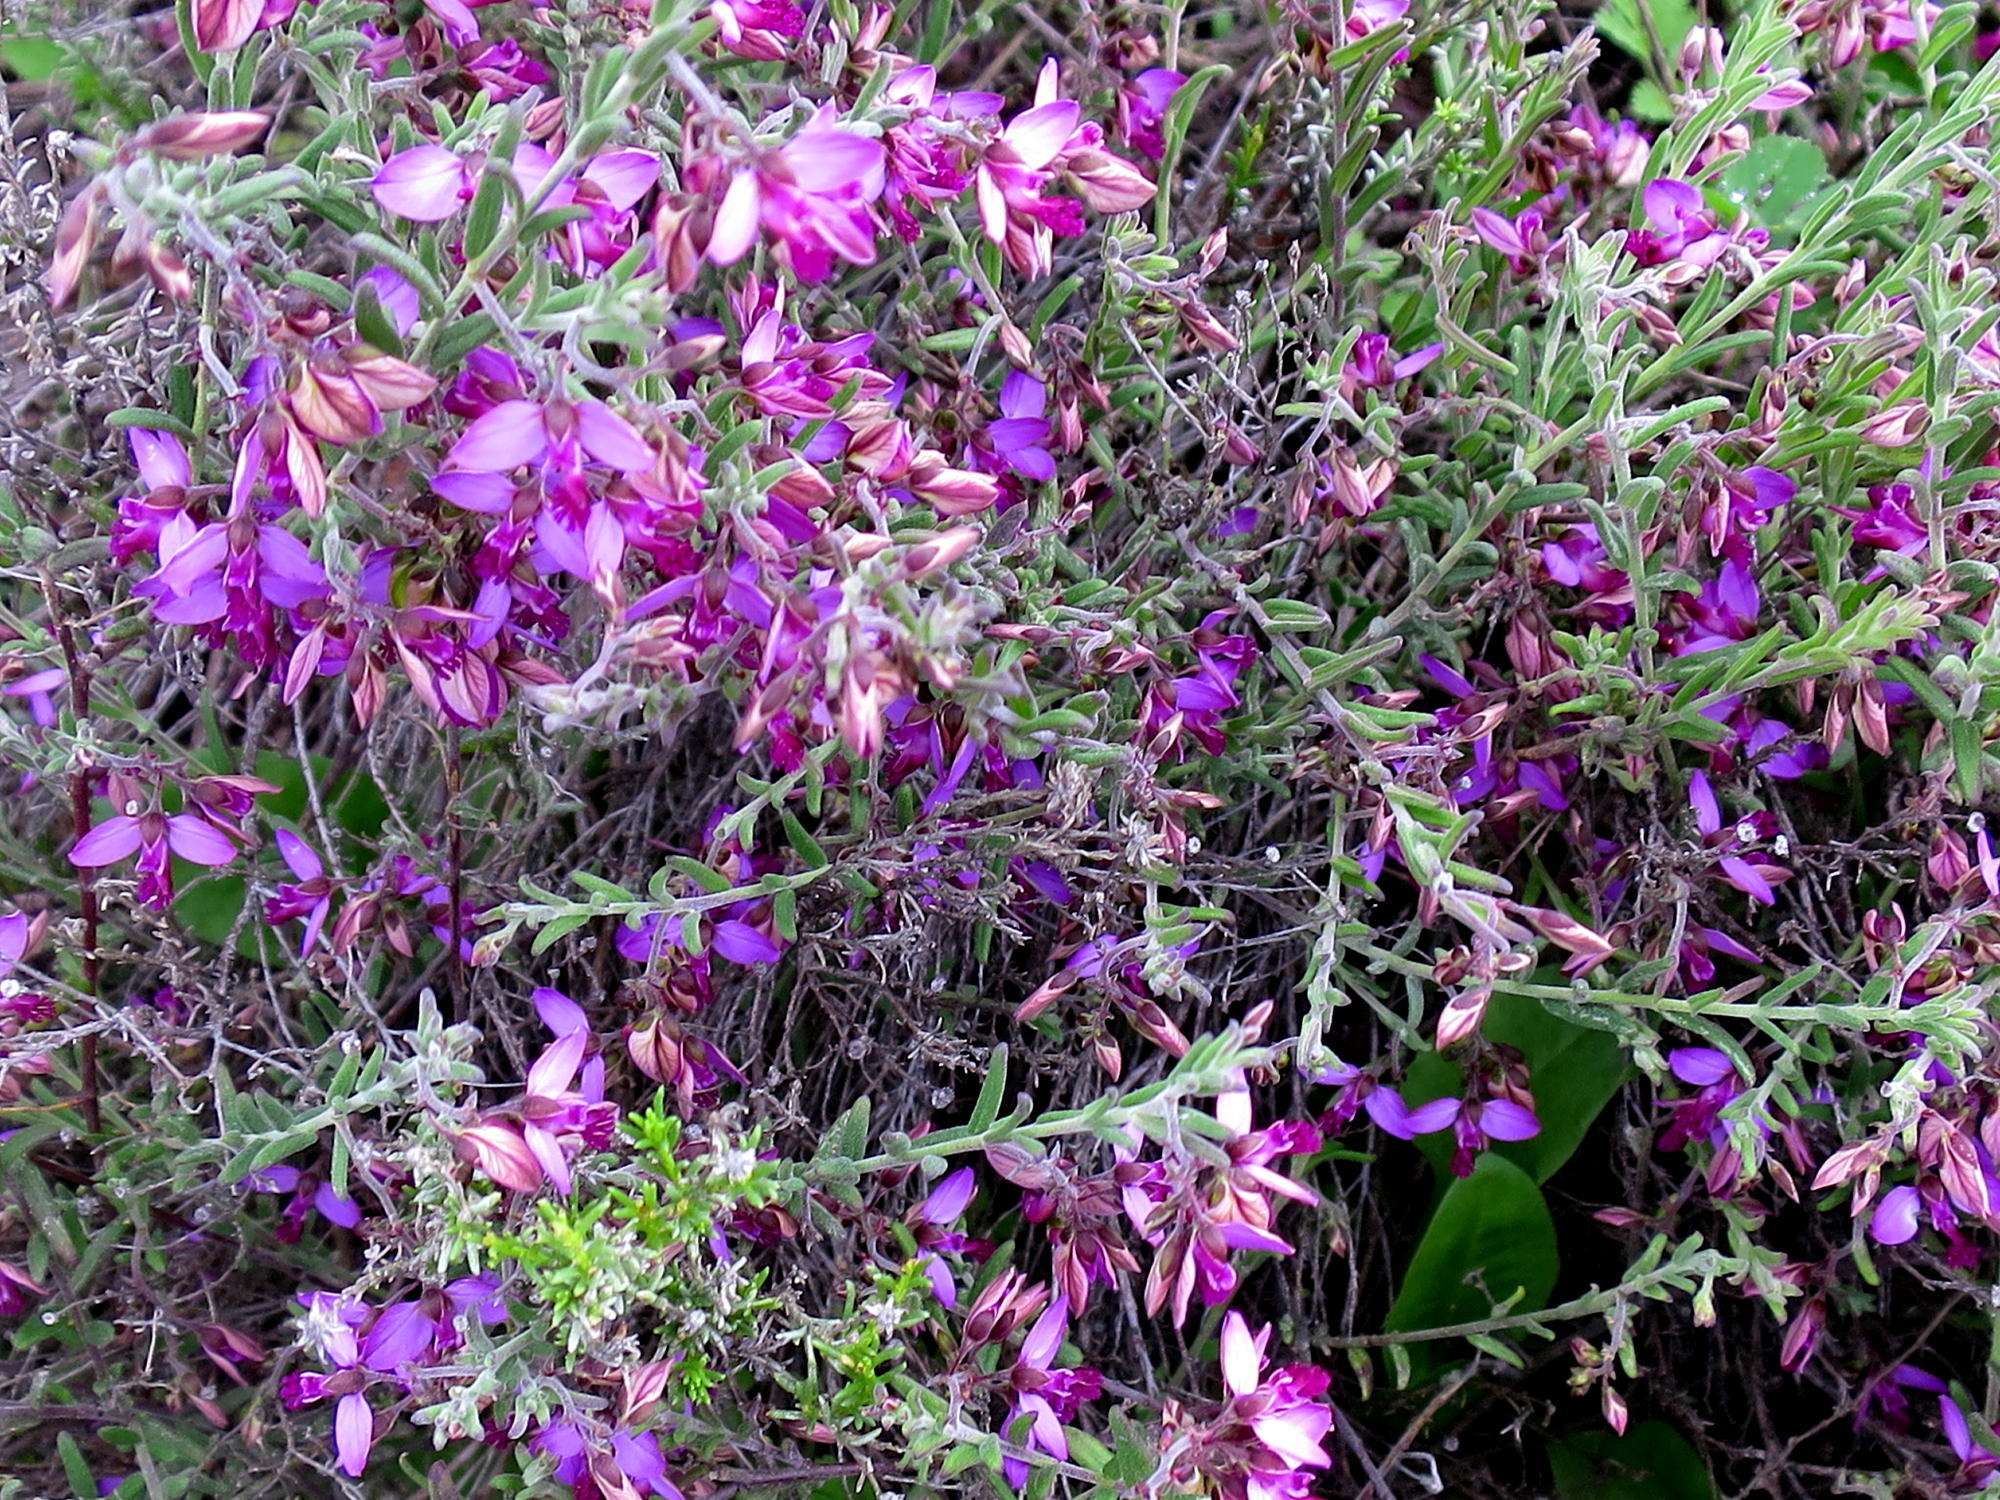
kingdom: Plantae
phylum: Tracheophyta
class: Magnoliopsida
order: Fabales
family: Polygalaceae
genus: Polygala
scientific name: Polygala scabra
